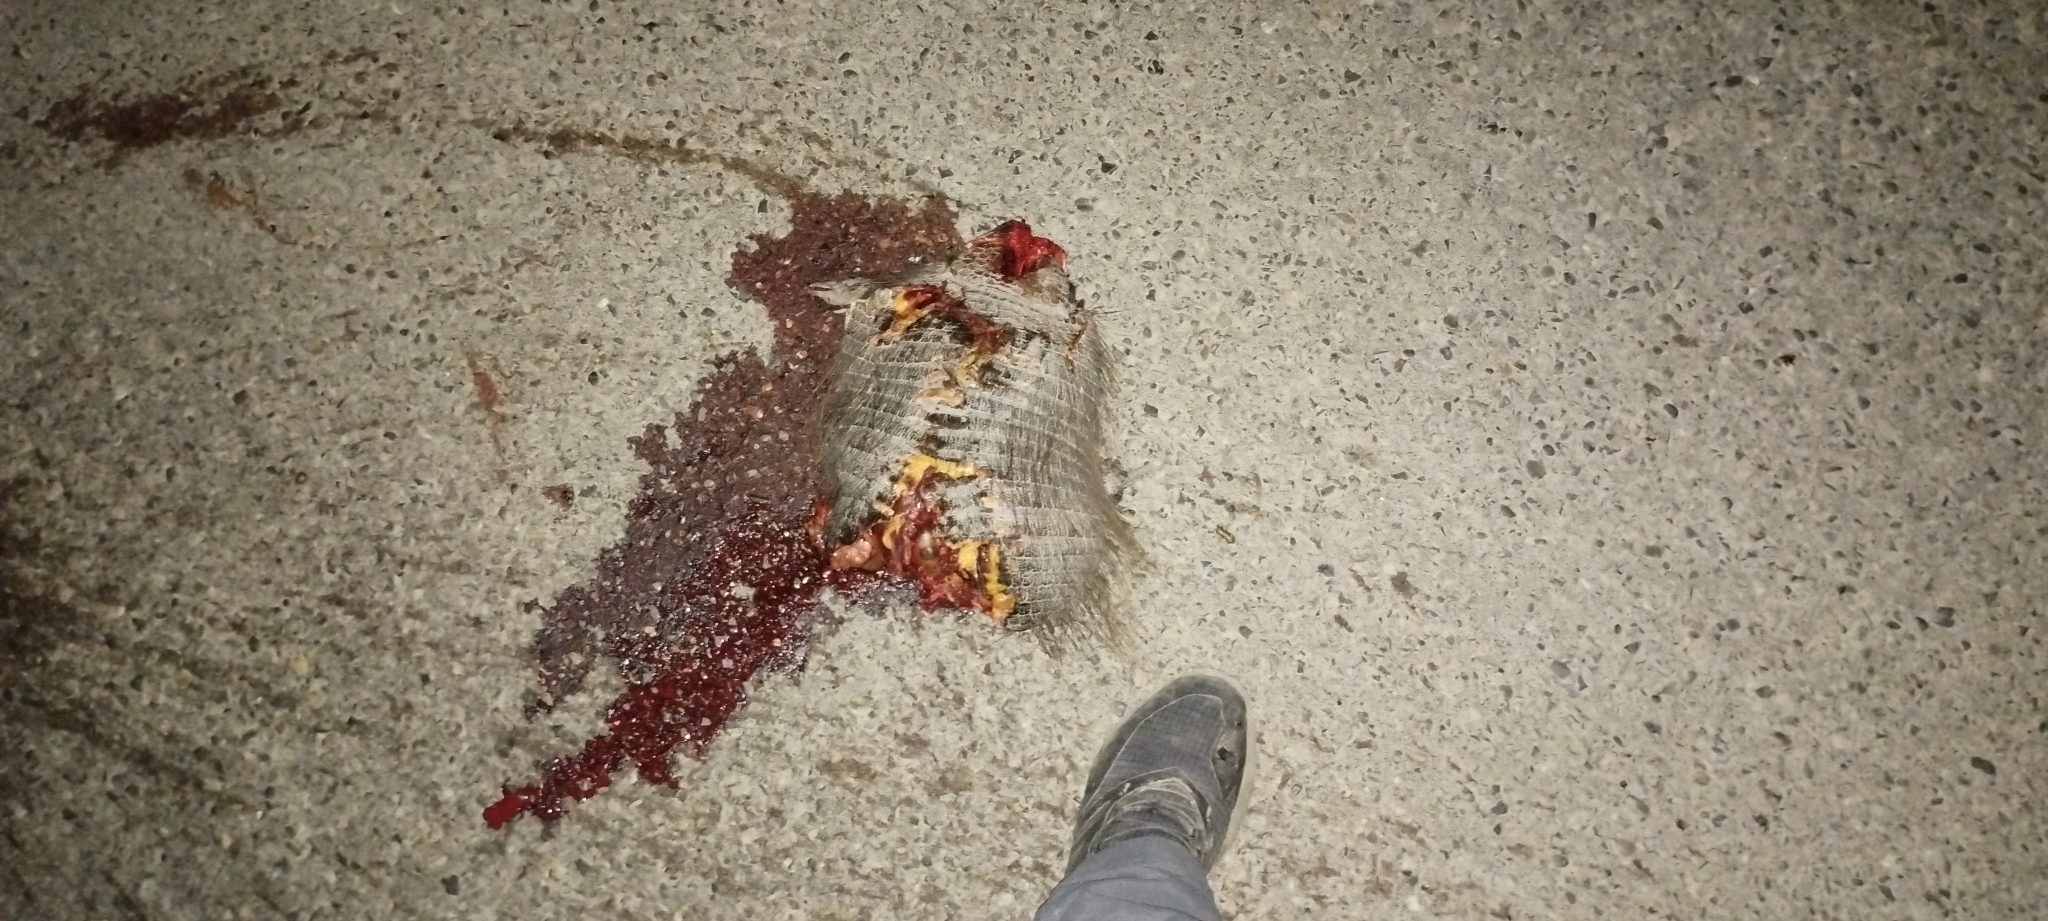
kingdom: Animalia
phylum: Chordata
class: Mammalia
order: Cingulata
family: Dasypodidae
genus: Chaetophractus
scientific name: Chaetophractus villosus
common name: Big hairy armadillo
